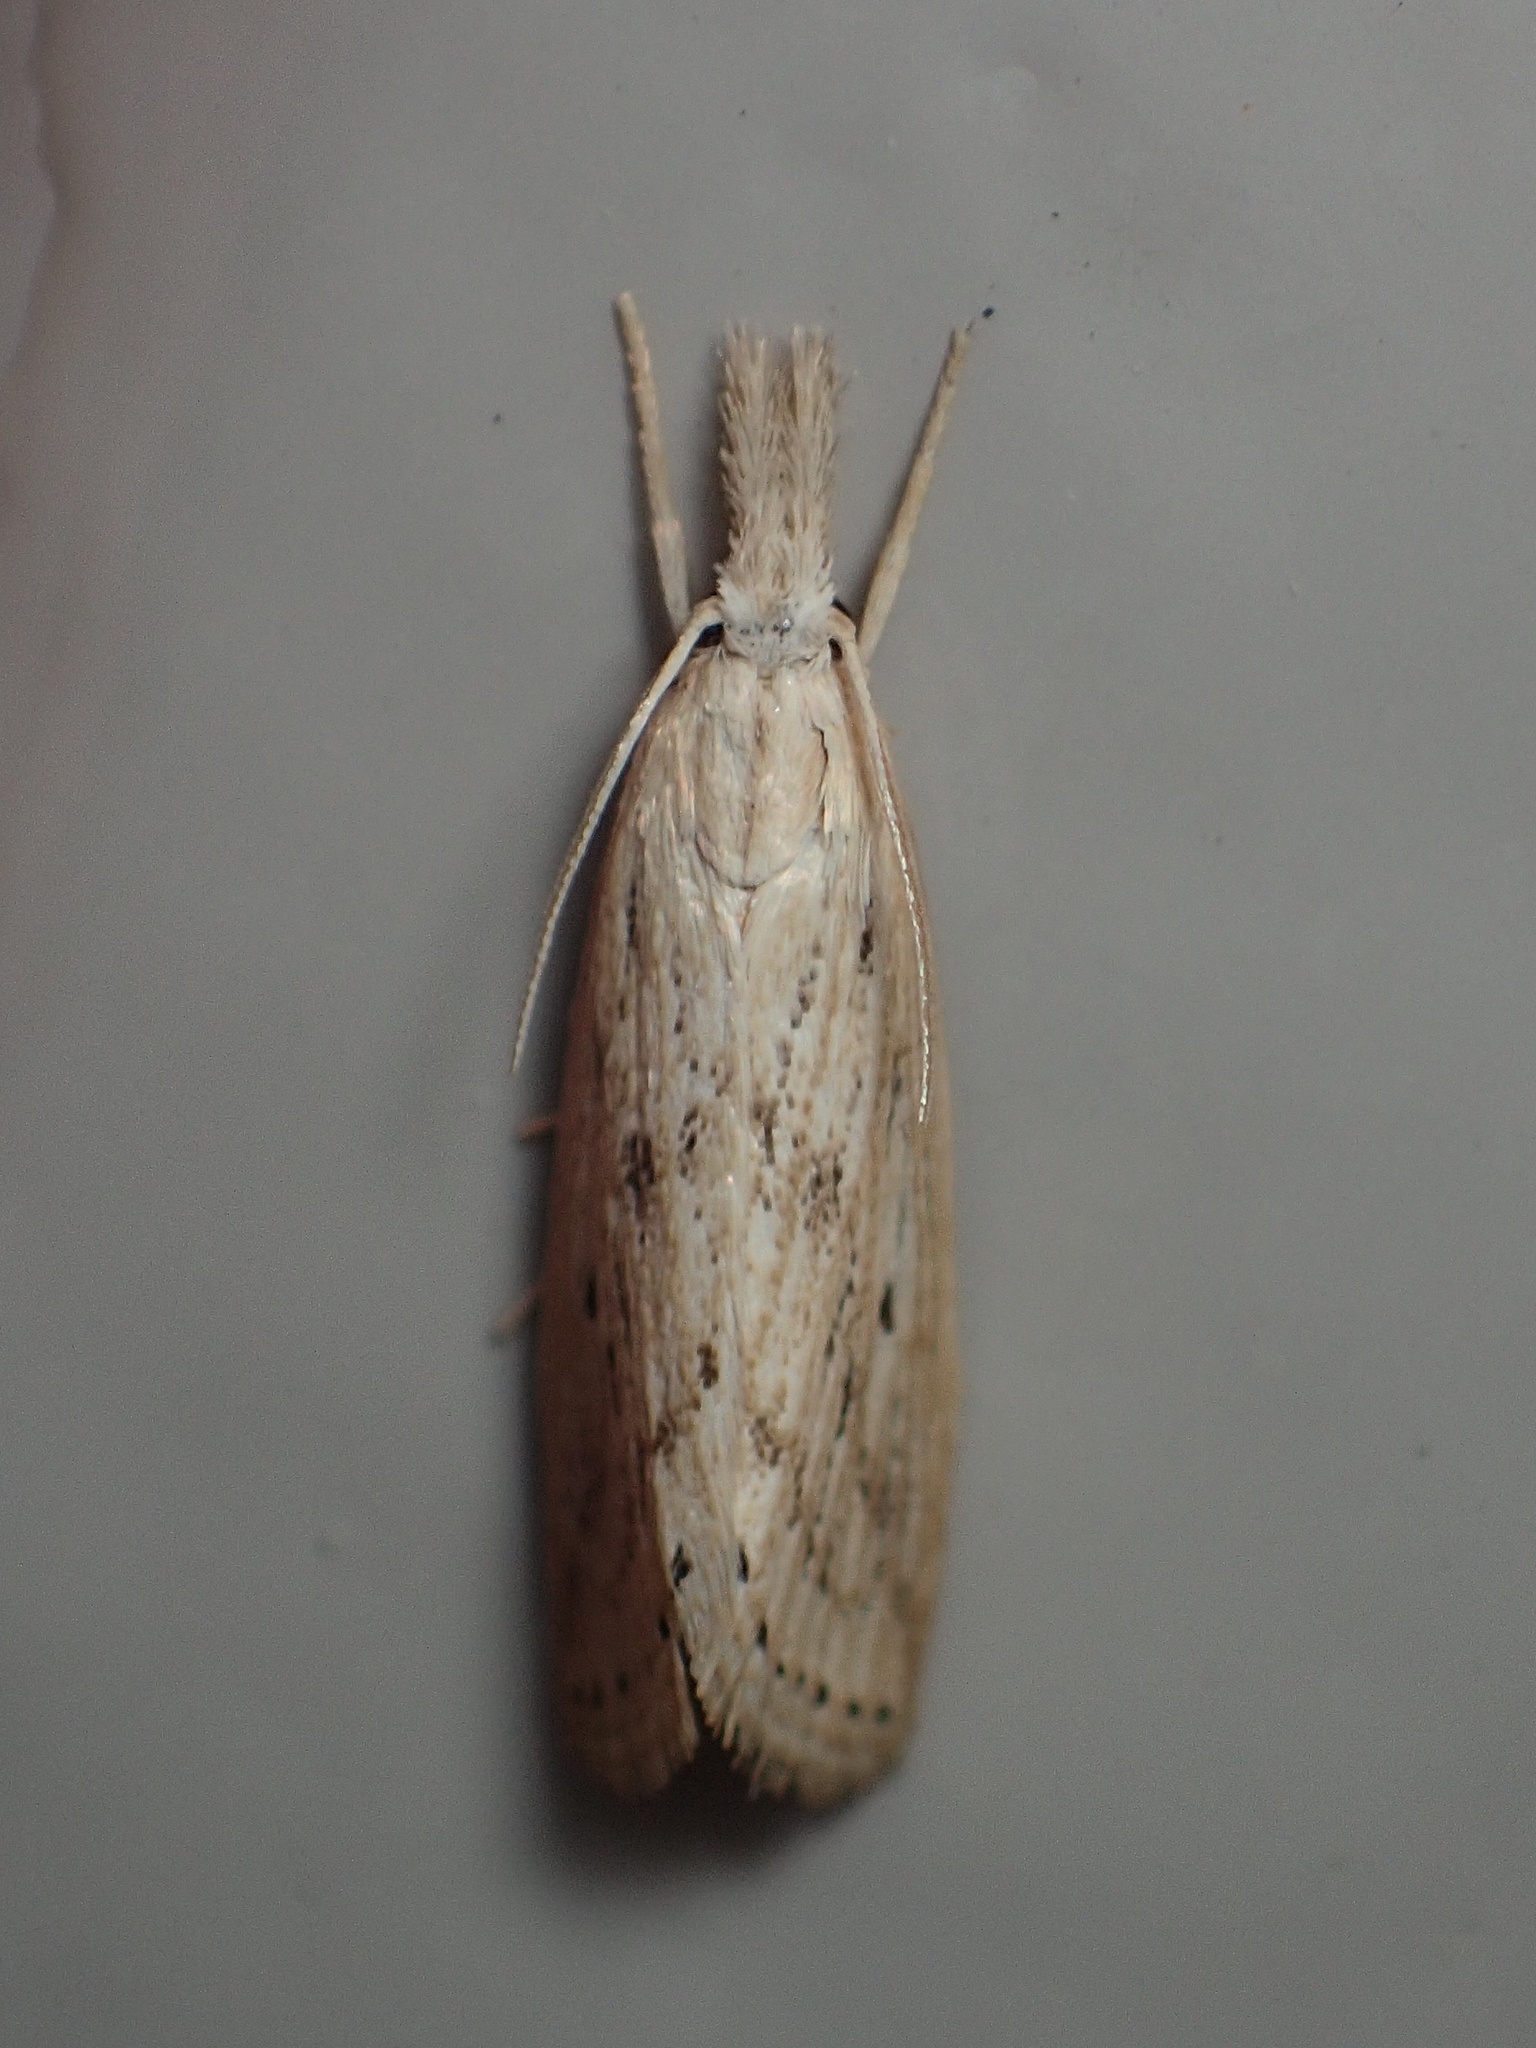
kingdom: Animalia
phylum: Arthropoda
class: Insecta
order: Lepidoptera
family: Crambidae
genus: Diatraea
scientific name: Diatraea lisetta
